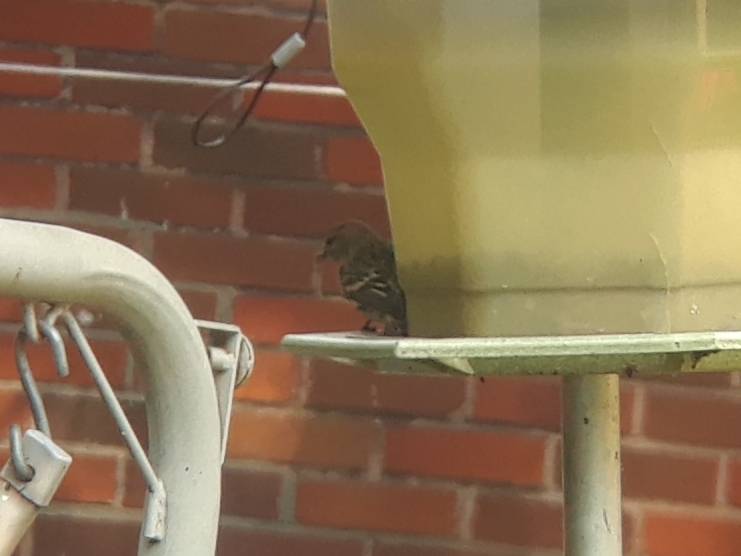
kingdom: Animalia
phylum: Chordata
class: Aves
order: Passeriformes
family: Fringillidae
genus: Spinus
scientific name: Spinus pinus
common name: Pine siskin
